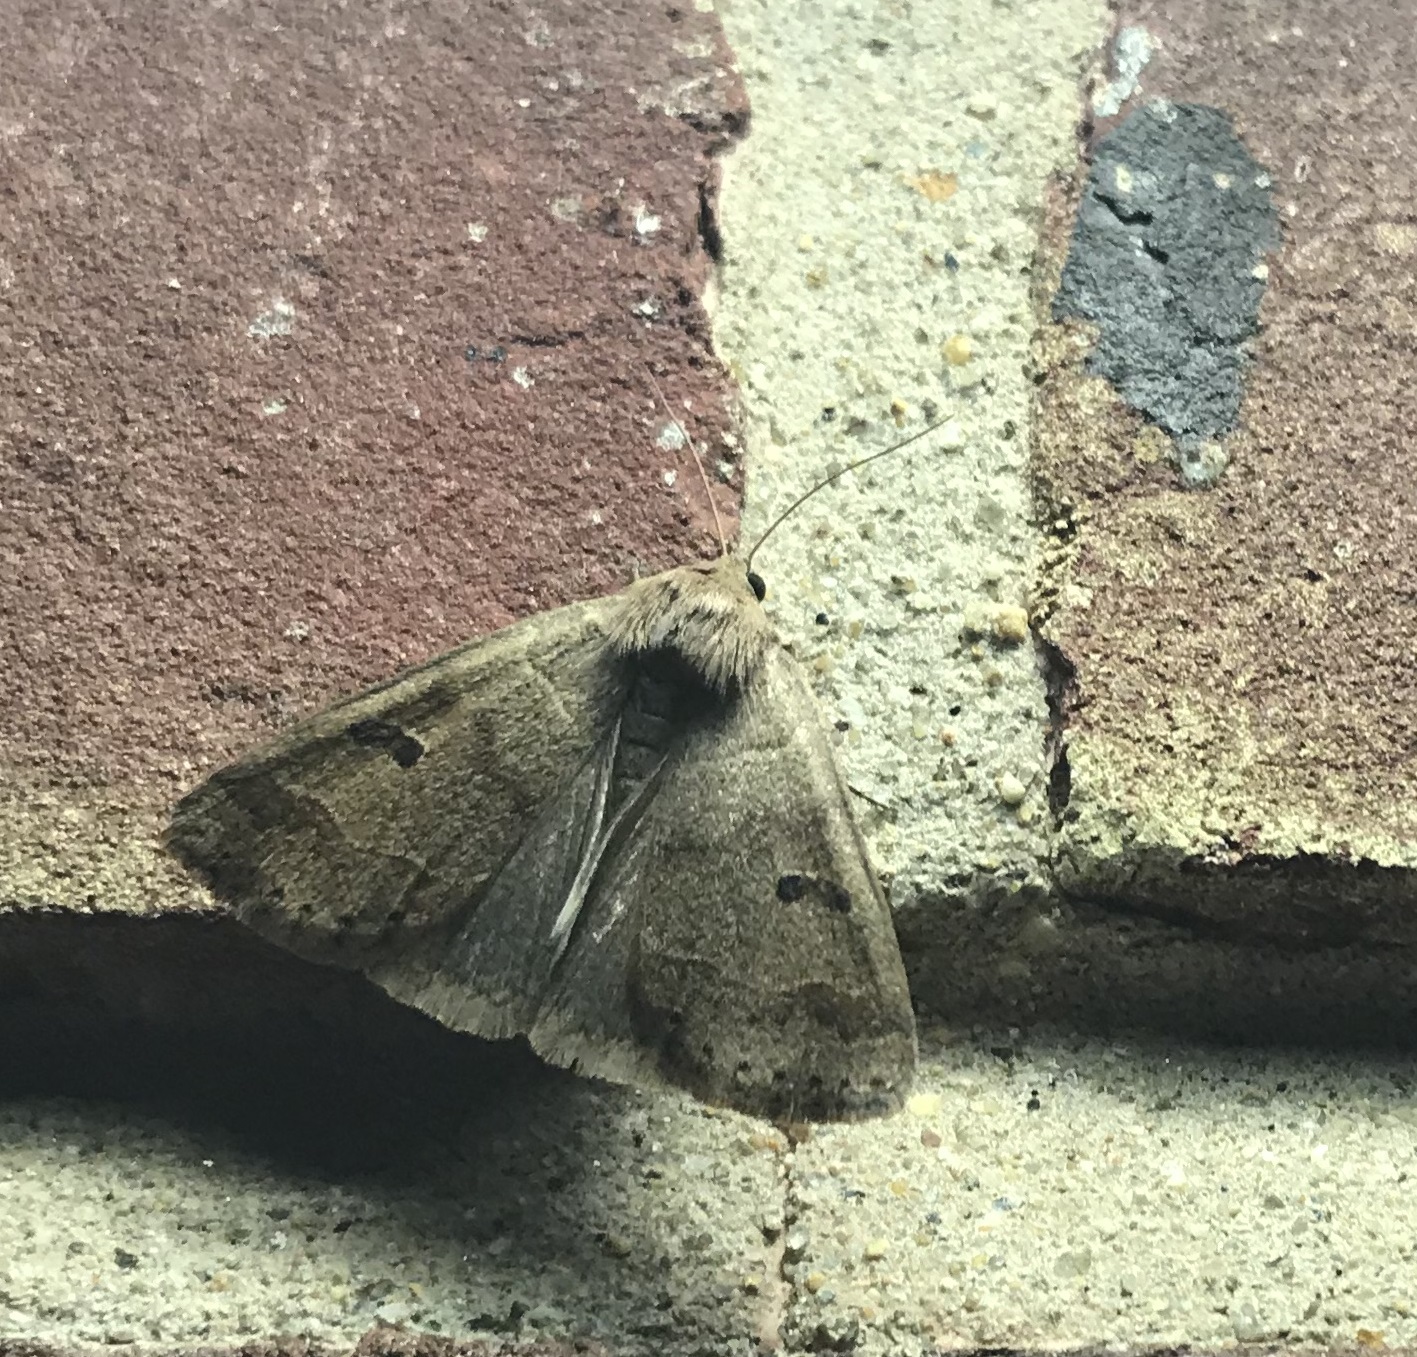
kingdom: Animalia
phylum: Arthropoda
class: Insecta
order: Lepidoptera
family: Erebidae
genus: Phoberia
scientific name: Phoberia atomaris
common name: Common oak moth
